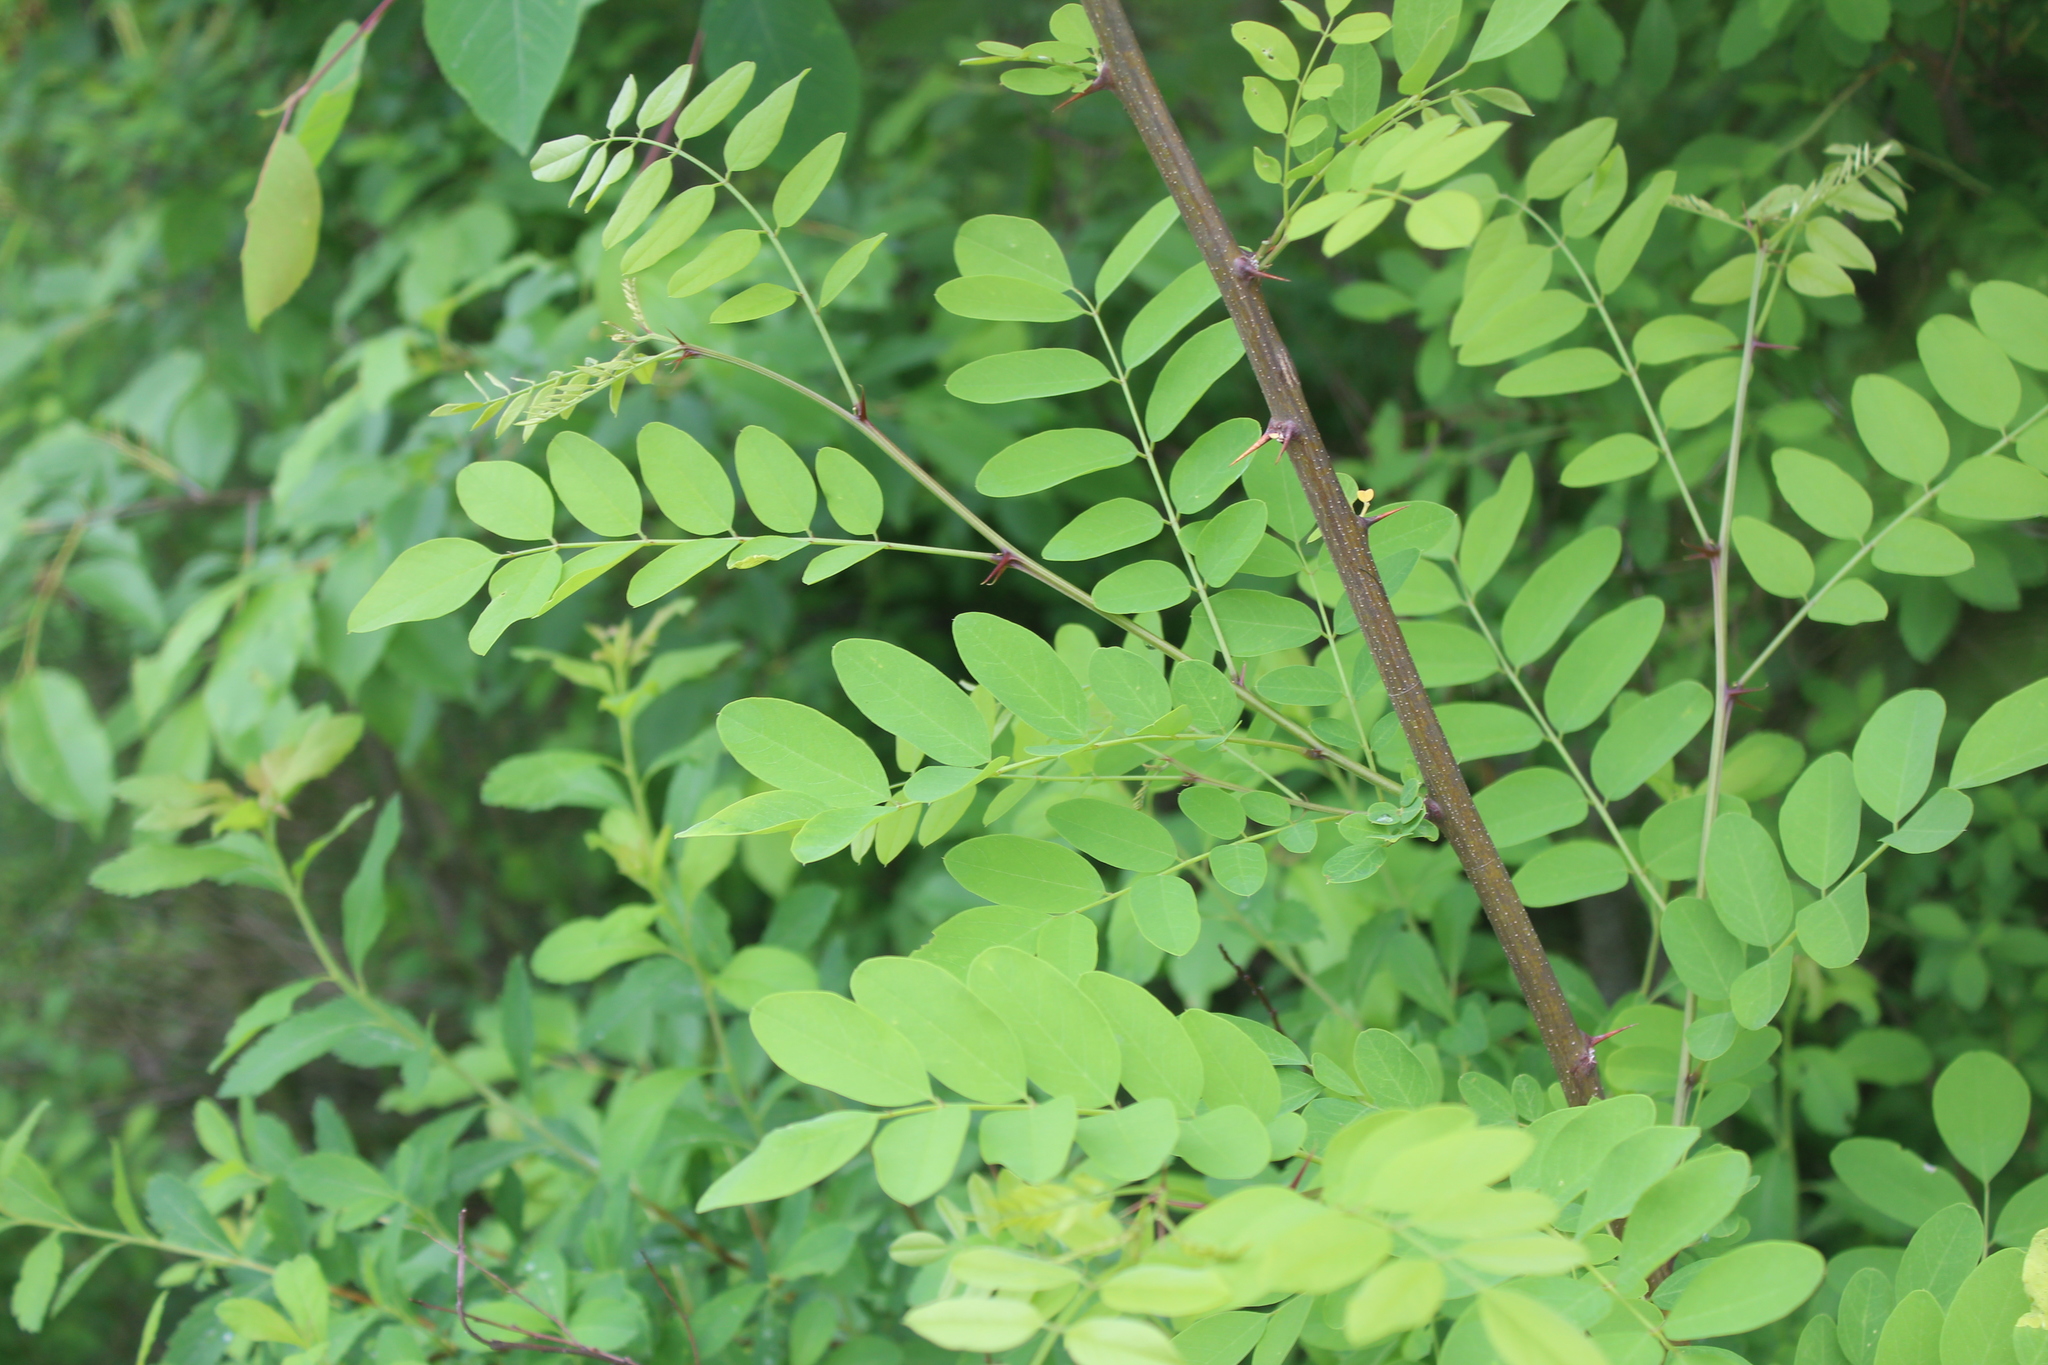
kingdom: Plantae
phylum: Tracheophyta
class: Magnoliopsida
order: Fabales
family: Fabaceae
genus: Robinia
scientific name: Robinia pseudoacacia
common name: Black locust
